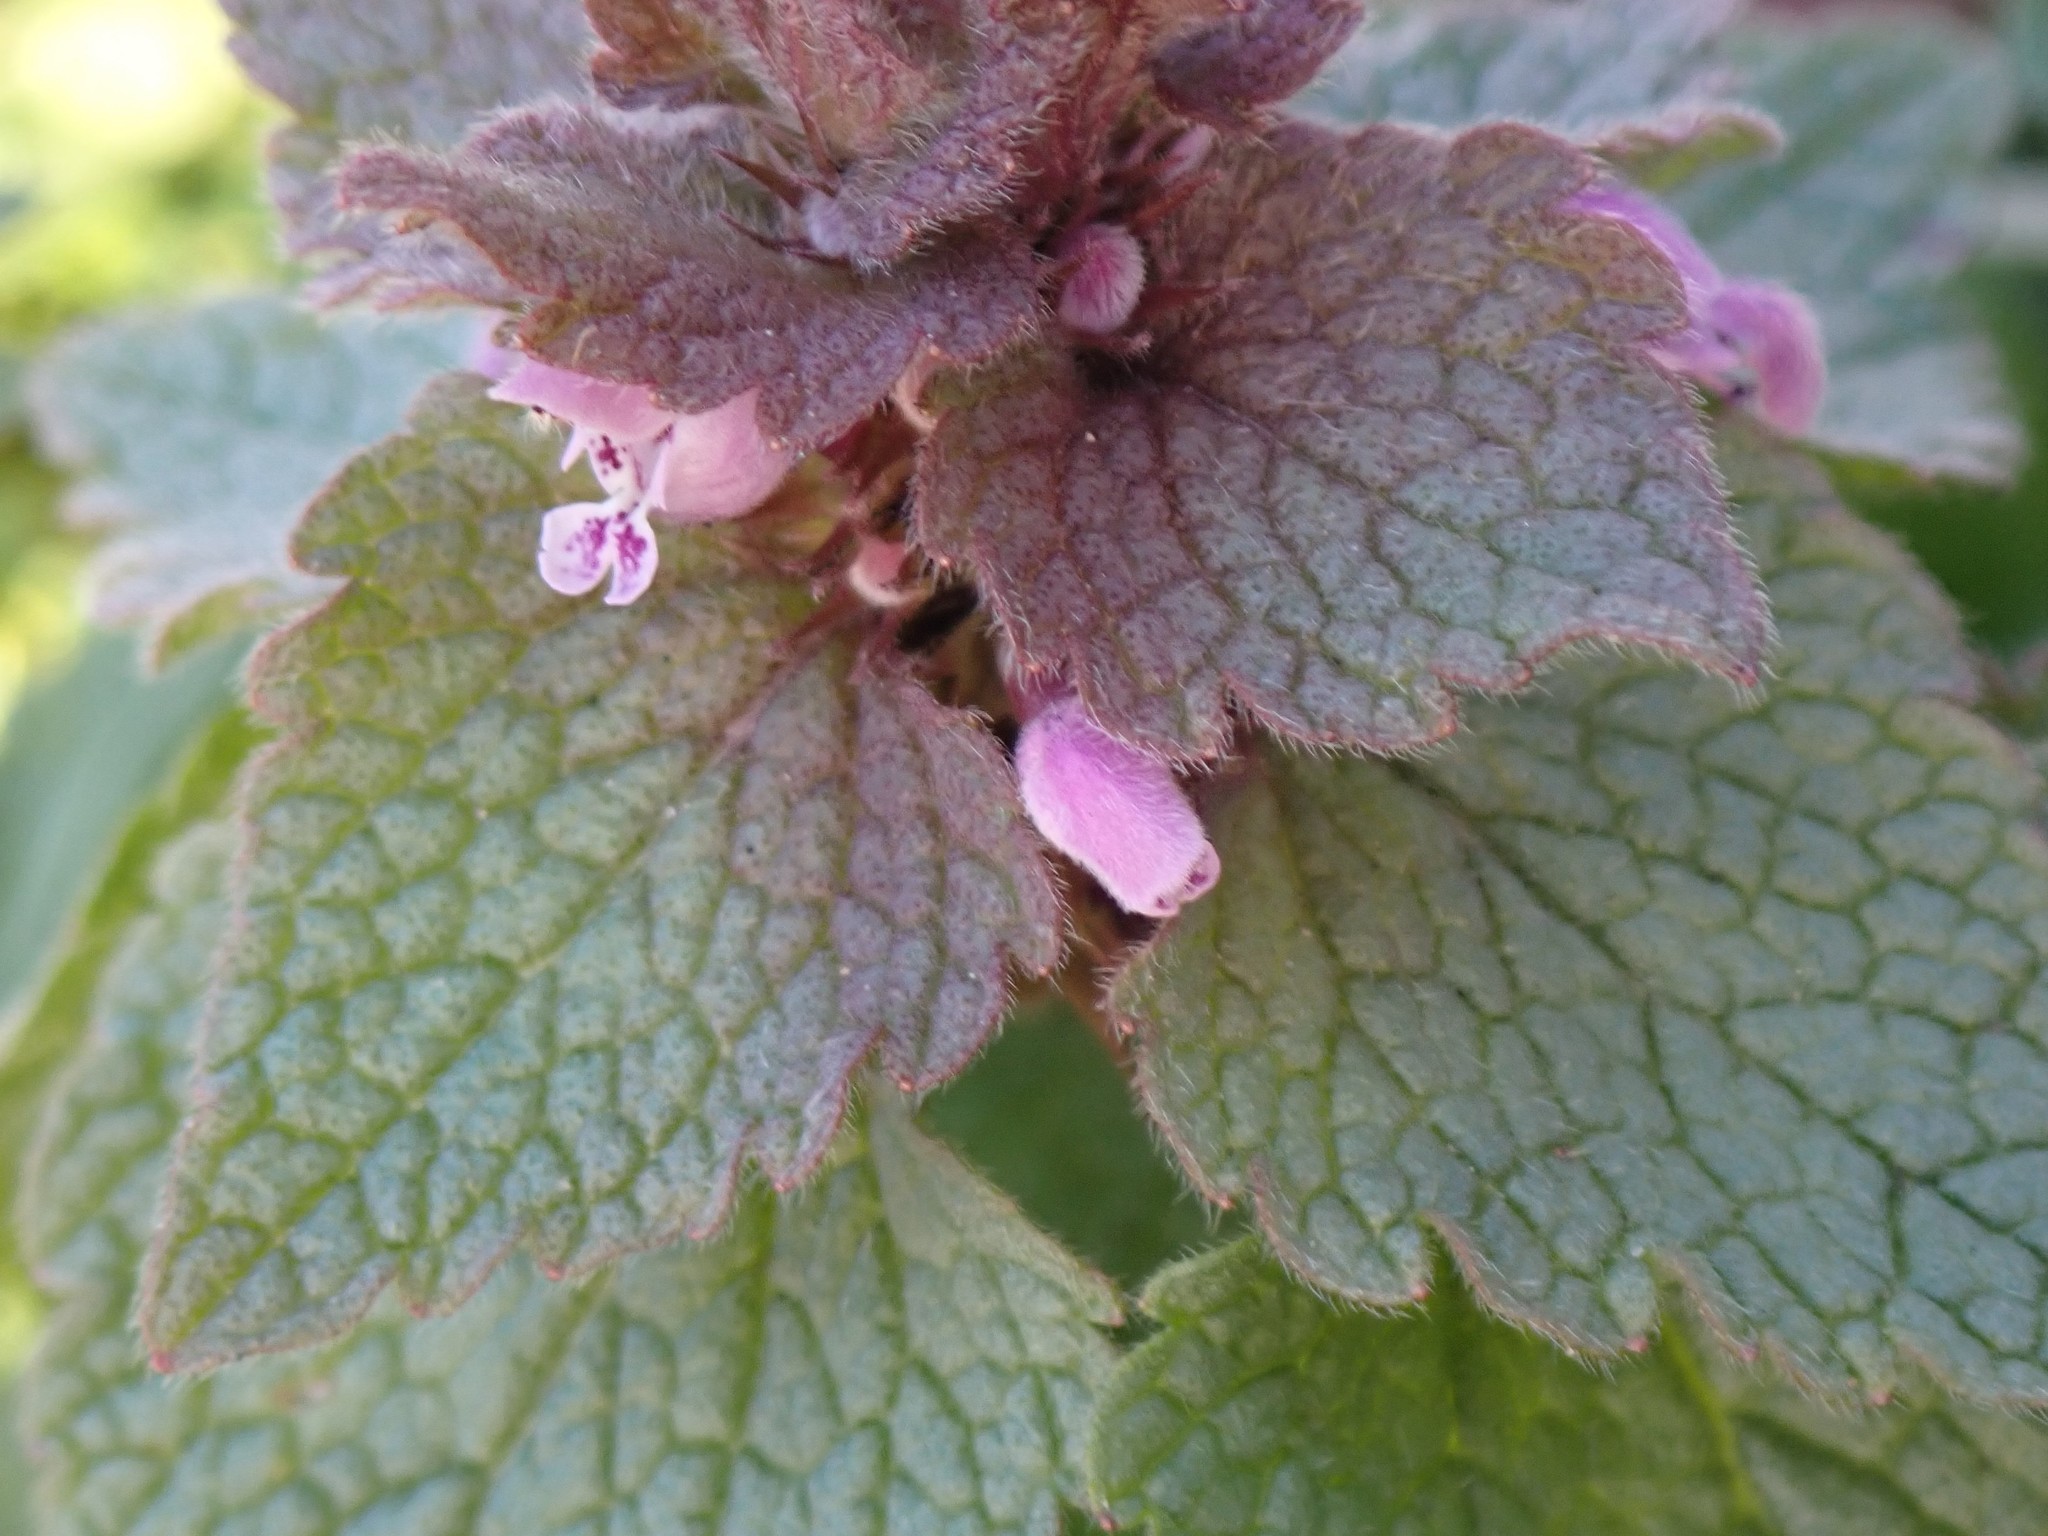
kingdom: Plantae
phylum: Tracheophyta
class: Magnoliopsida
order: Lamiales
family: Lamiaceae
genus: Lamium
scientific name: Lamium purpureum
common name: Red dead-nettle
